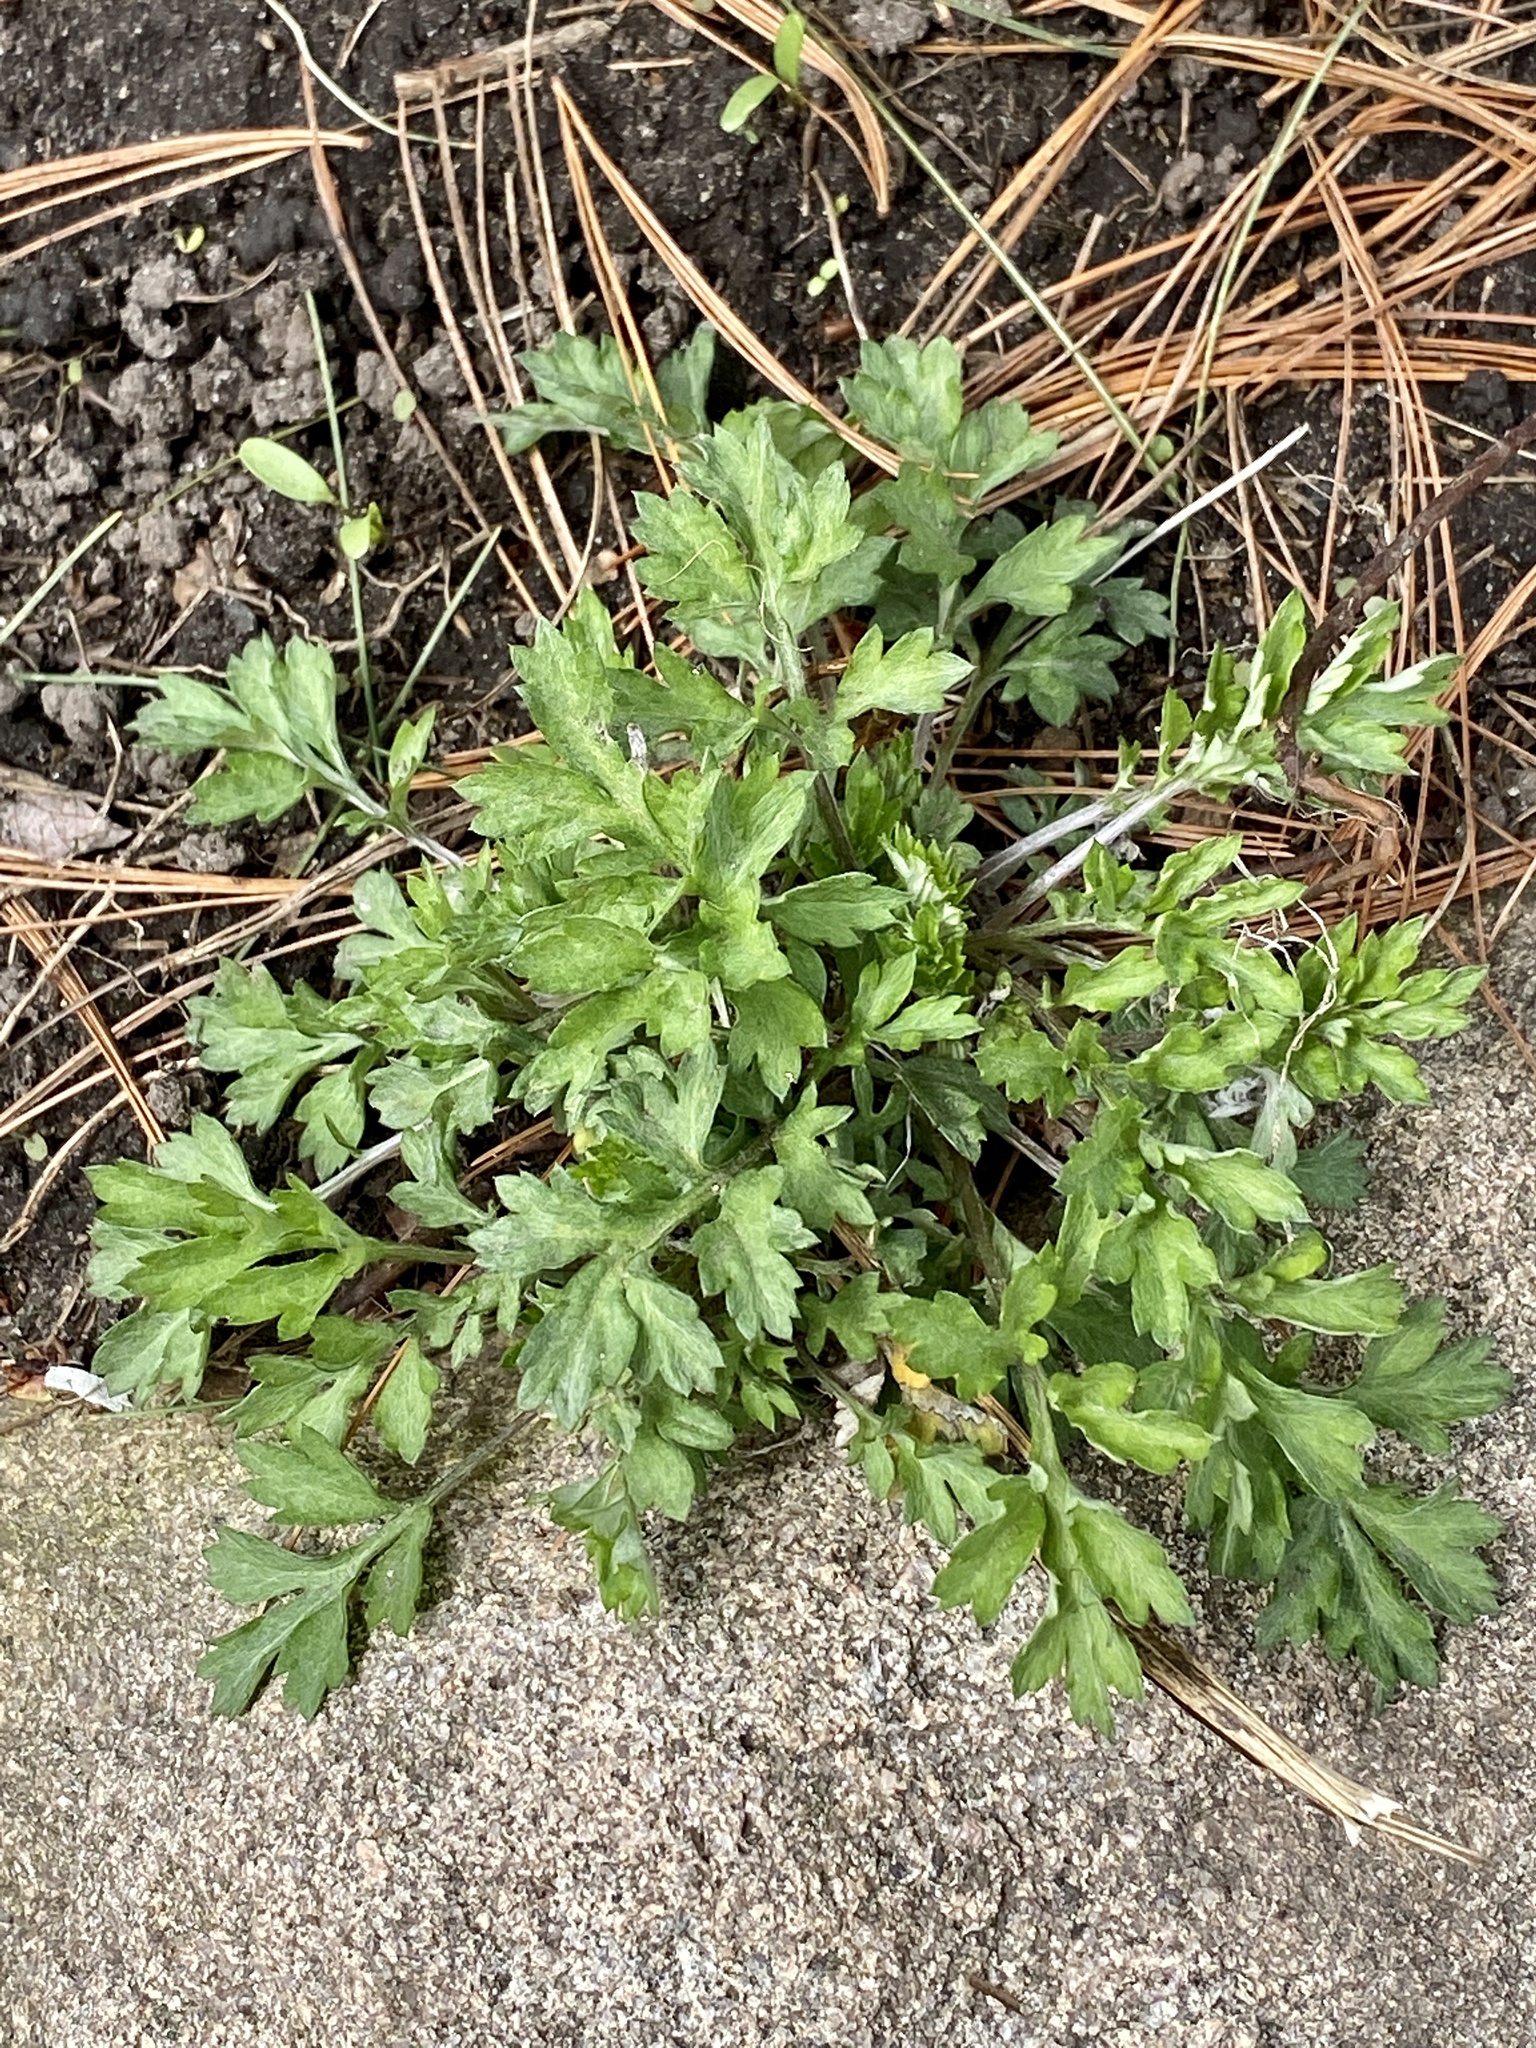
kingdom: Plantae
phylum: Tracheophyta
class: Magnoliopsida
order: Asterales
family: Asteraceae
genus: Artemisia
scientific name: Artemisia vulgaris
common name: Mugwort
